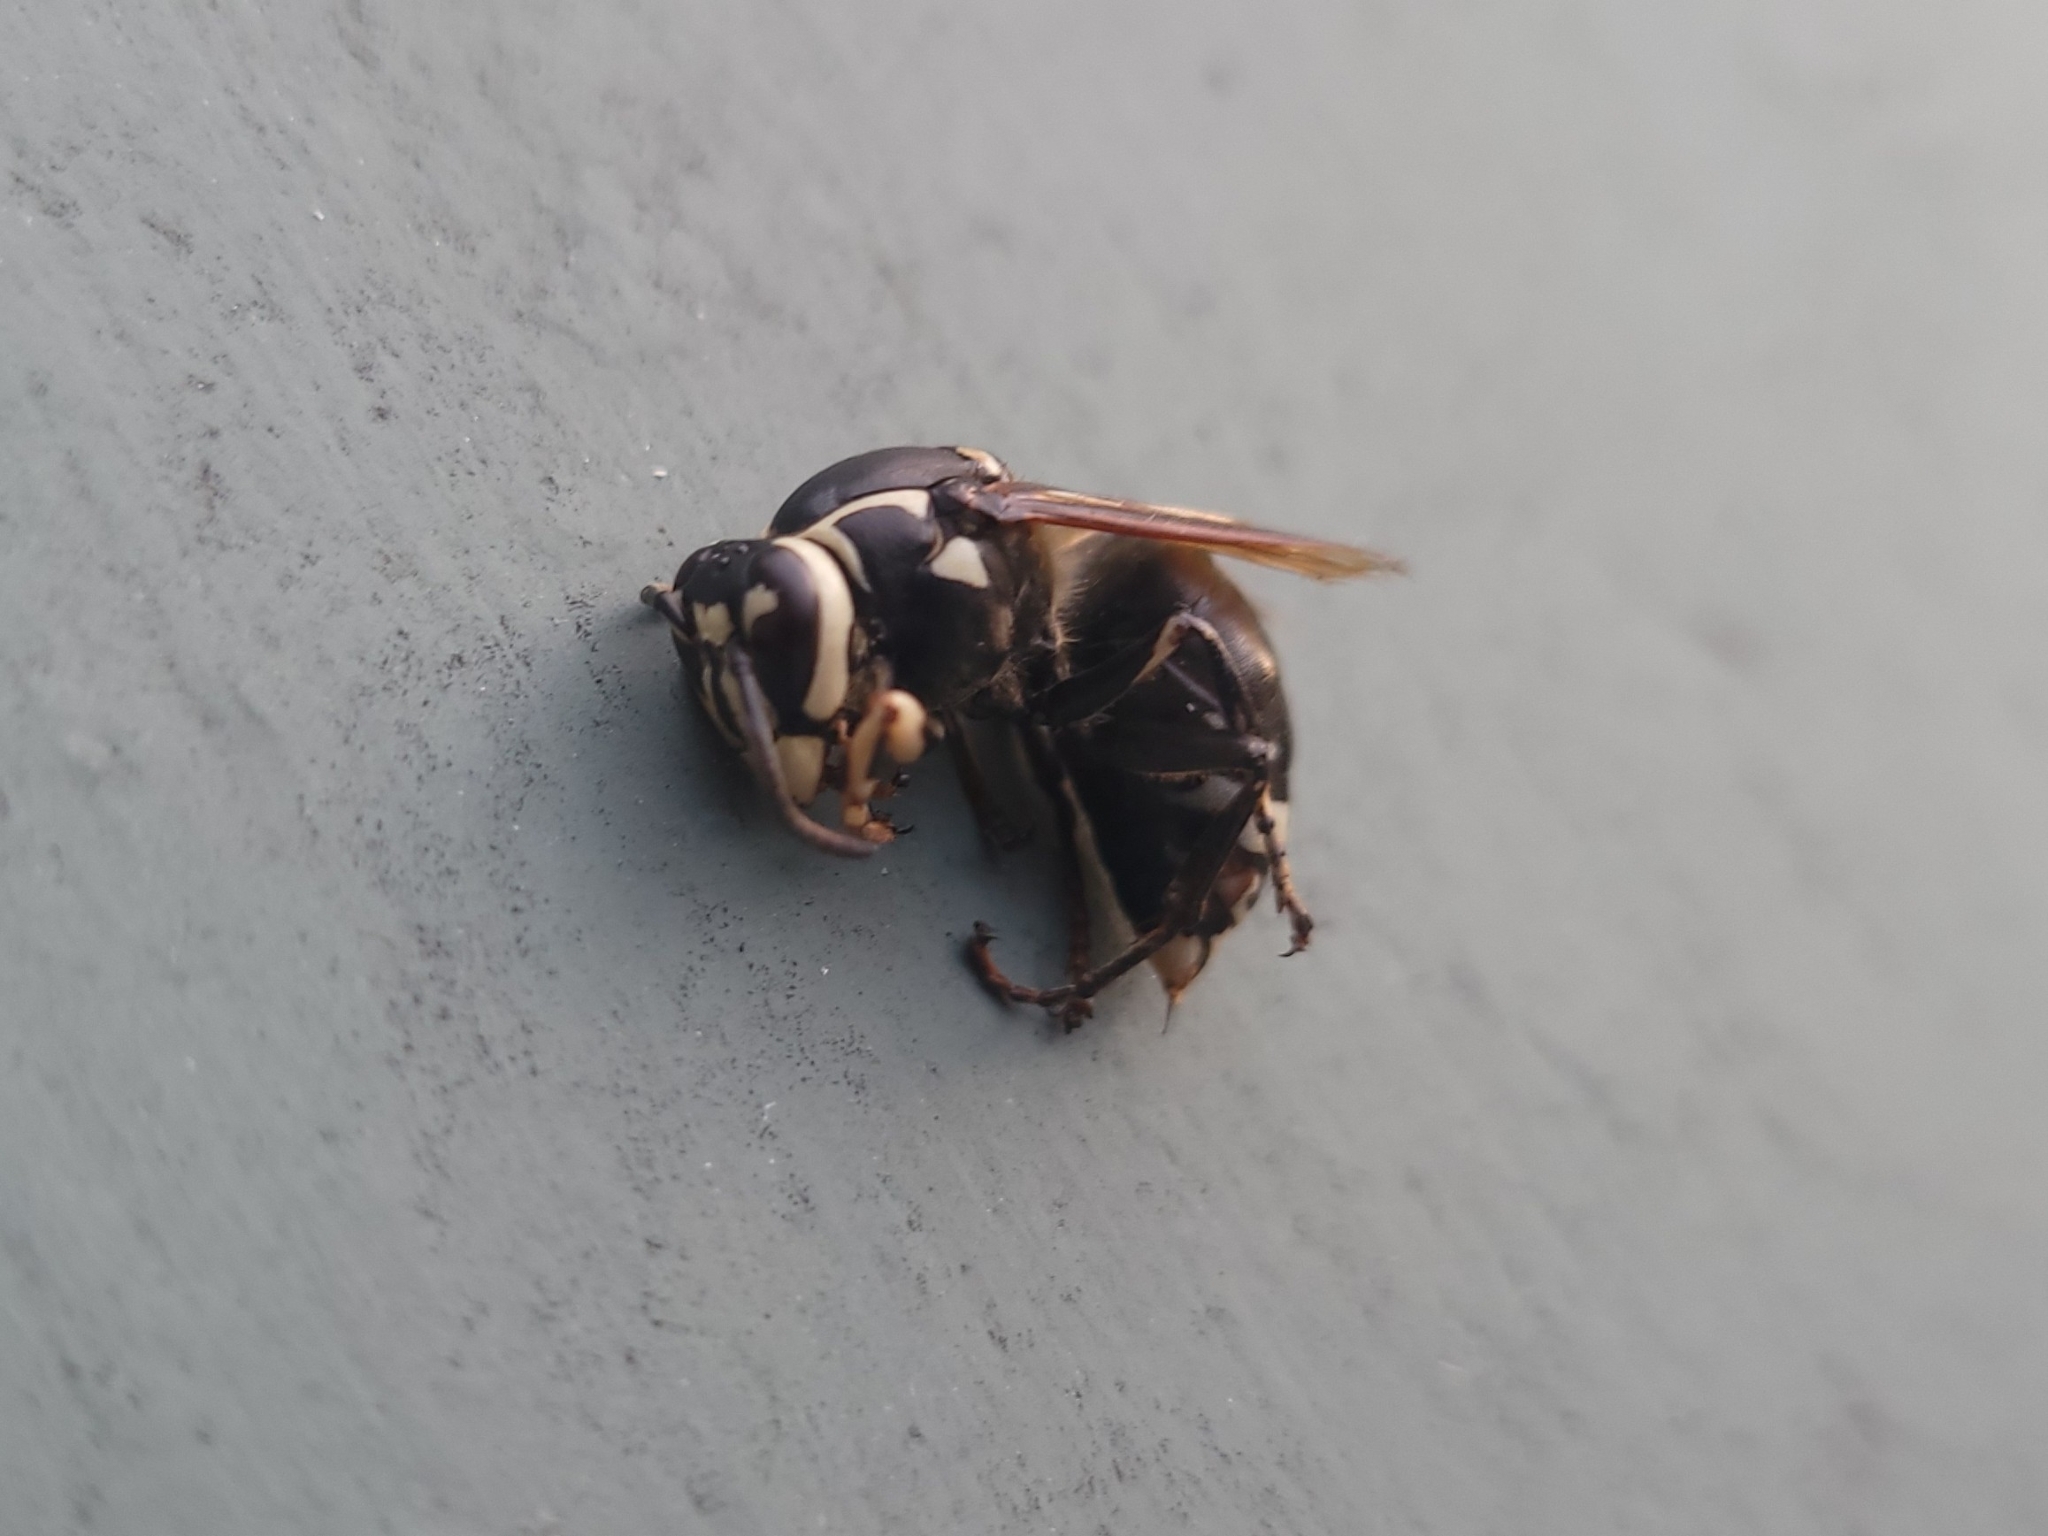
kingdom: Animalia
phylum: Arthropoda
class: Insecta
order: Hymenoptera
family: Vespidae
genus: Dolichovespula
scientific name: Dolichovespula maculata
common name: Bald-faced hornet
